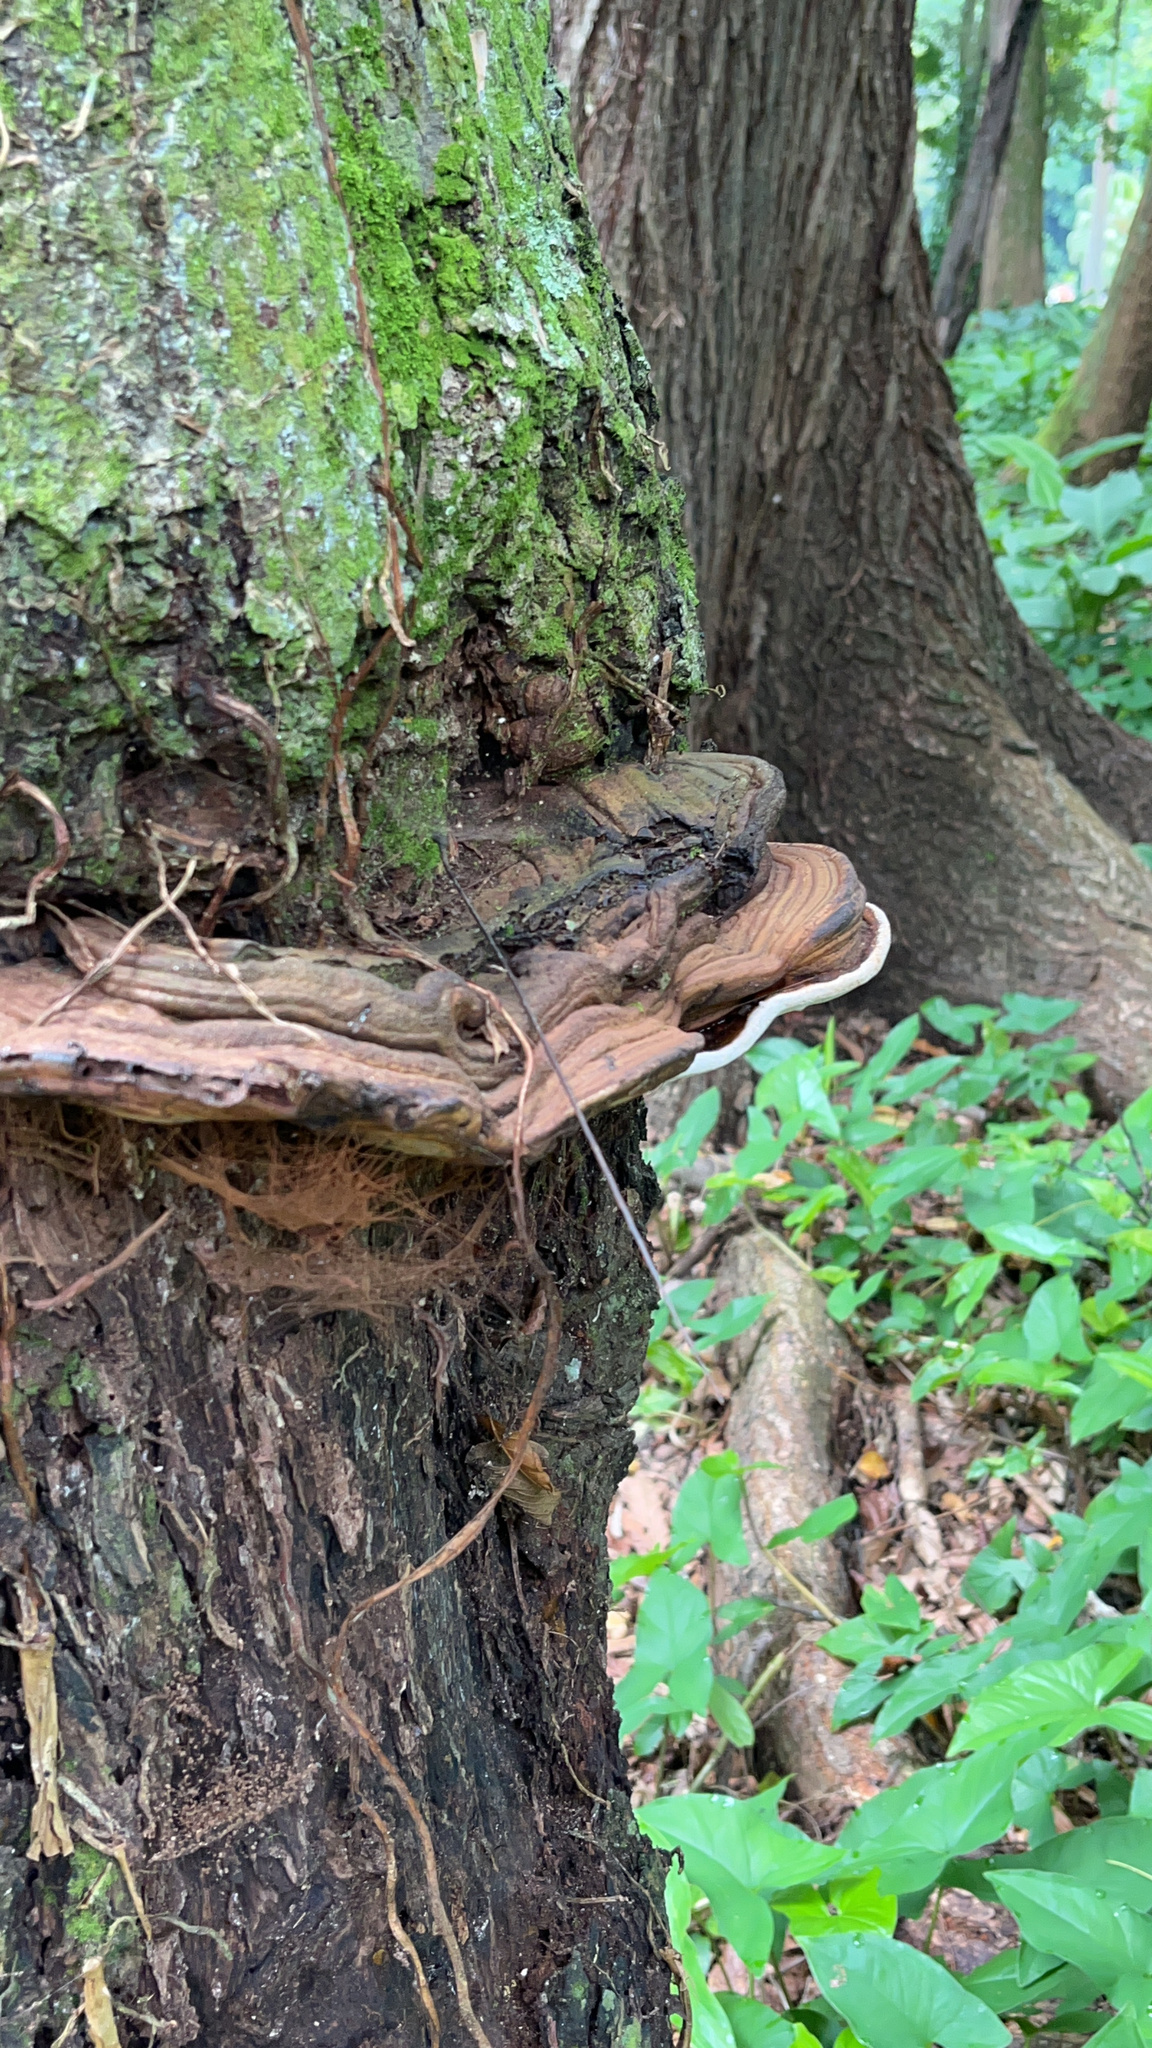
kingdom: Fungi
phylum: Basidiomycota
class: Agaricomycetes
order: Polyporales
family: Polyporaceae
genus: Ganoderma
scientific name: Ganoderma applanatum
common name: Artist's bracket
